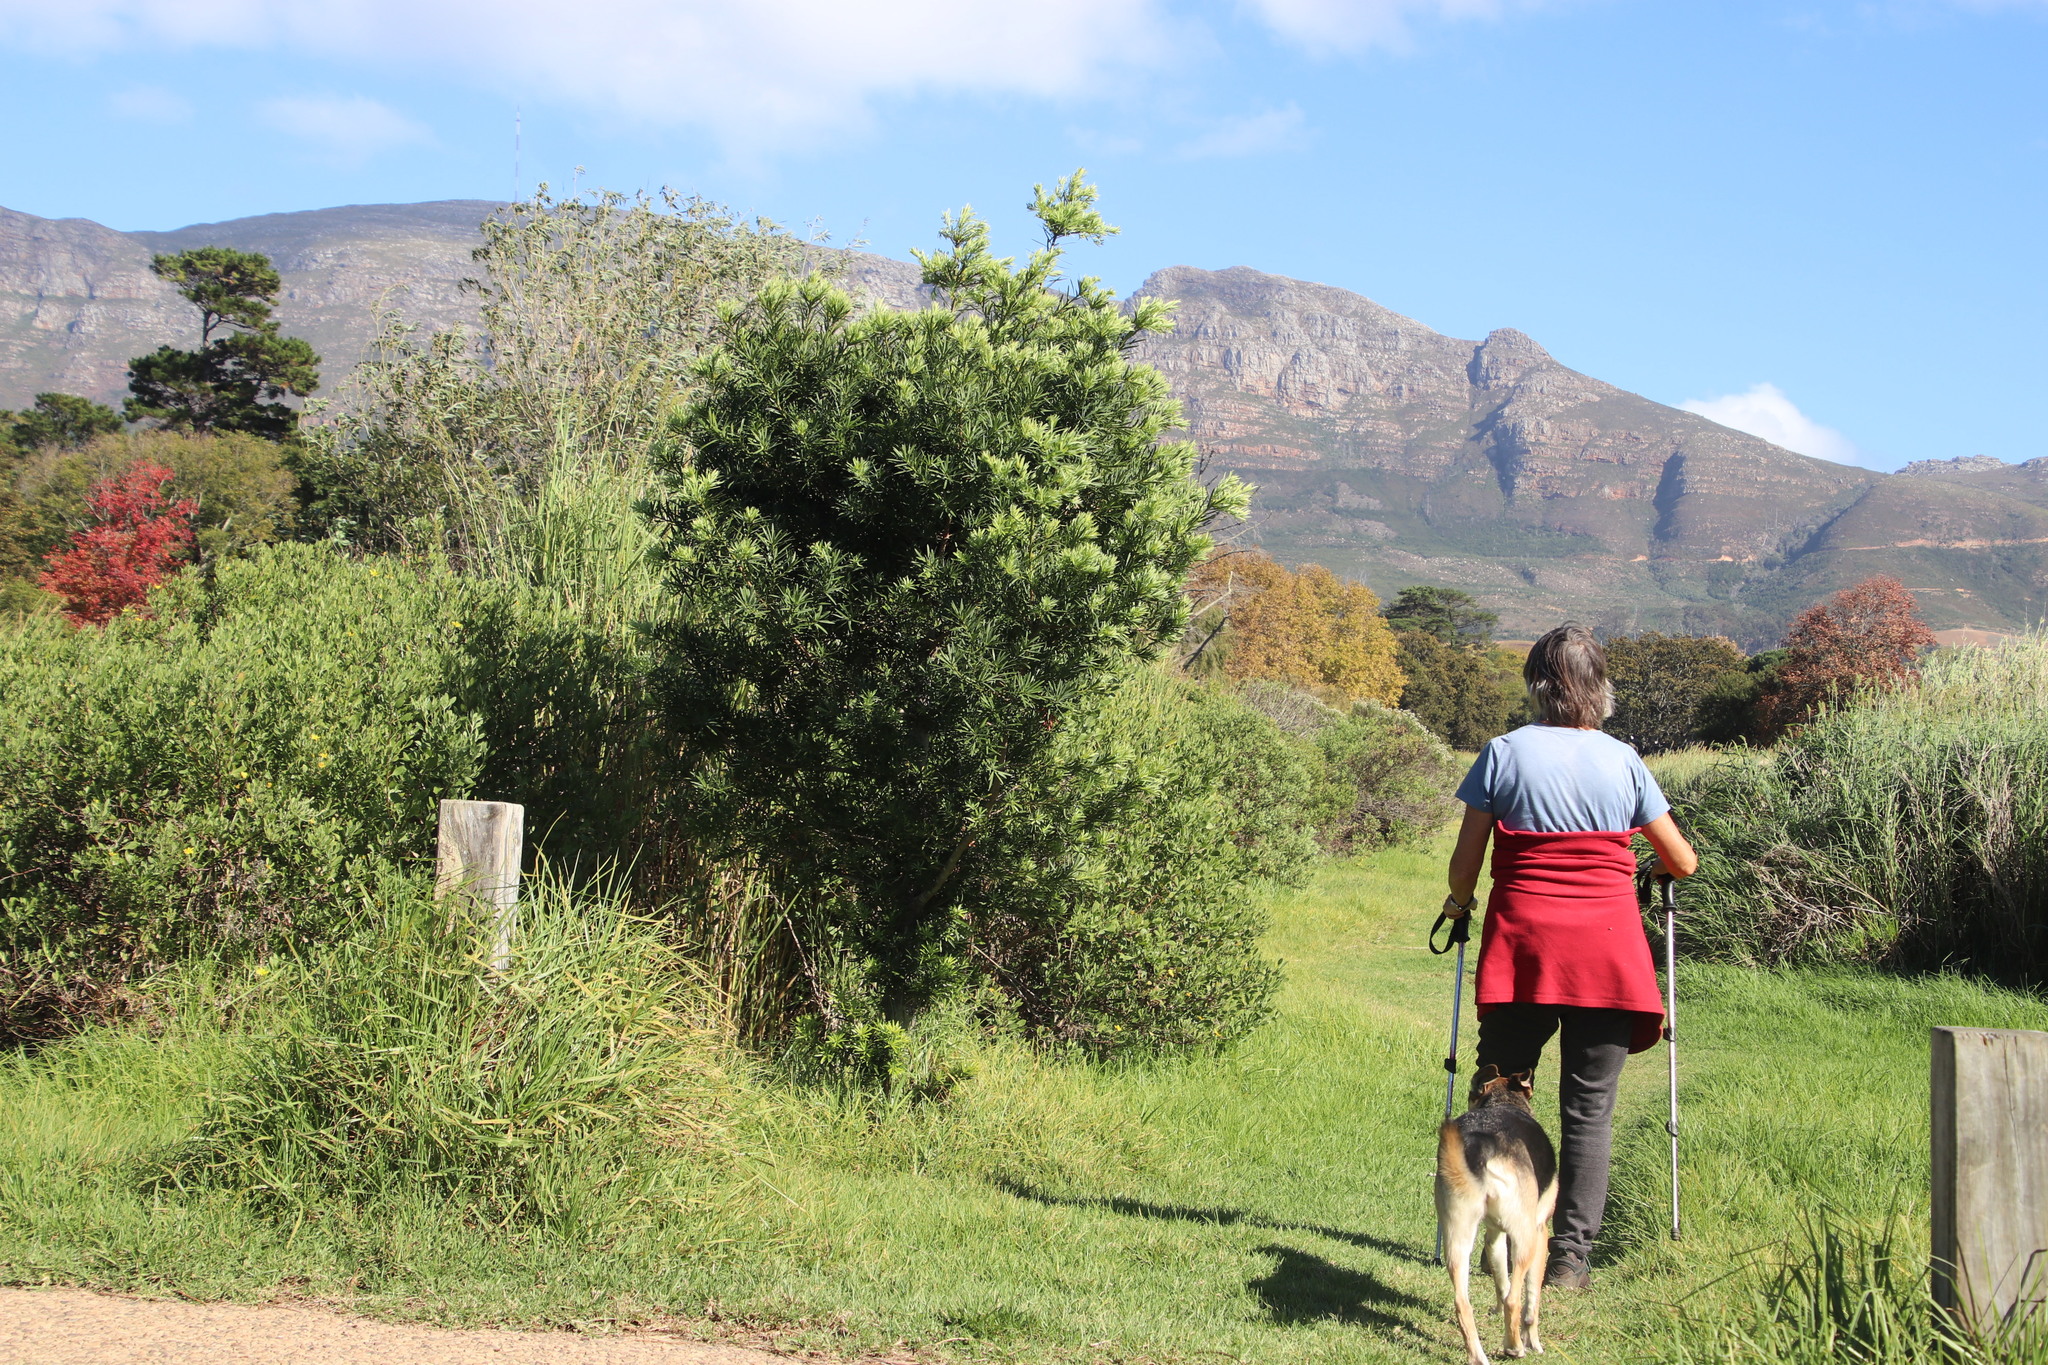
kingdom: Plantae
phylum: Tracheophyta
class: Pinopsida
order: Pinales
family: Podocarpaceae
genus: Podocarpus
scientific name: Podocarpus latifolius
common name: True yellowwood
